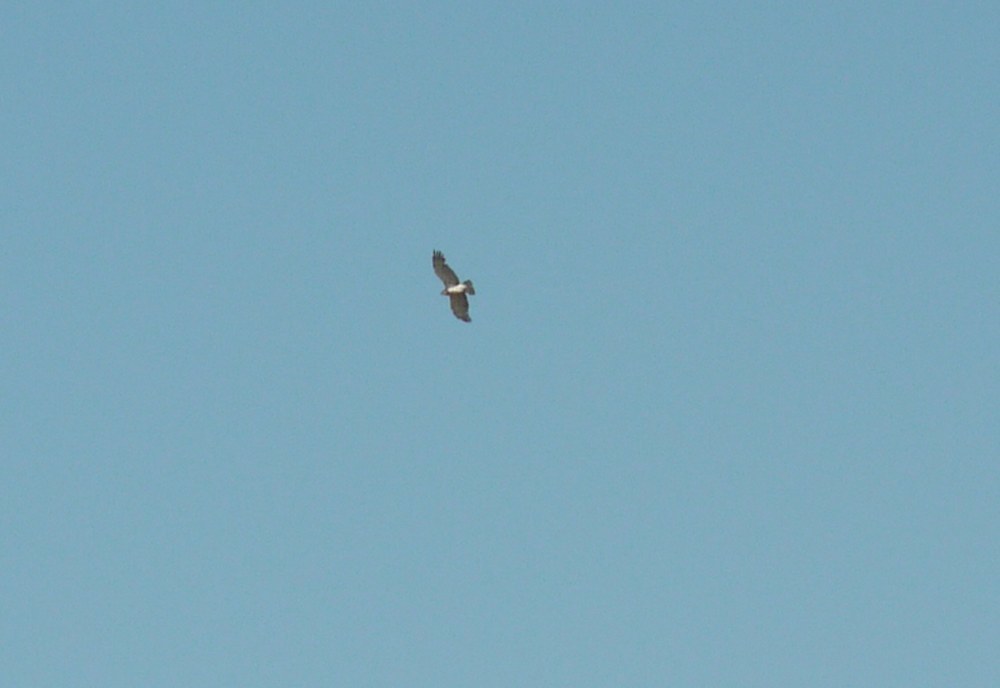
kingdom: Animalia
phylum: Chordata
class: Aves
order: Accipitriformes
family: Accipitridae
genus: Circaetus
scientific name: Circaetus gallicus
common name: Short-toed snake eagle
